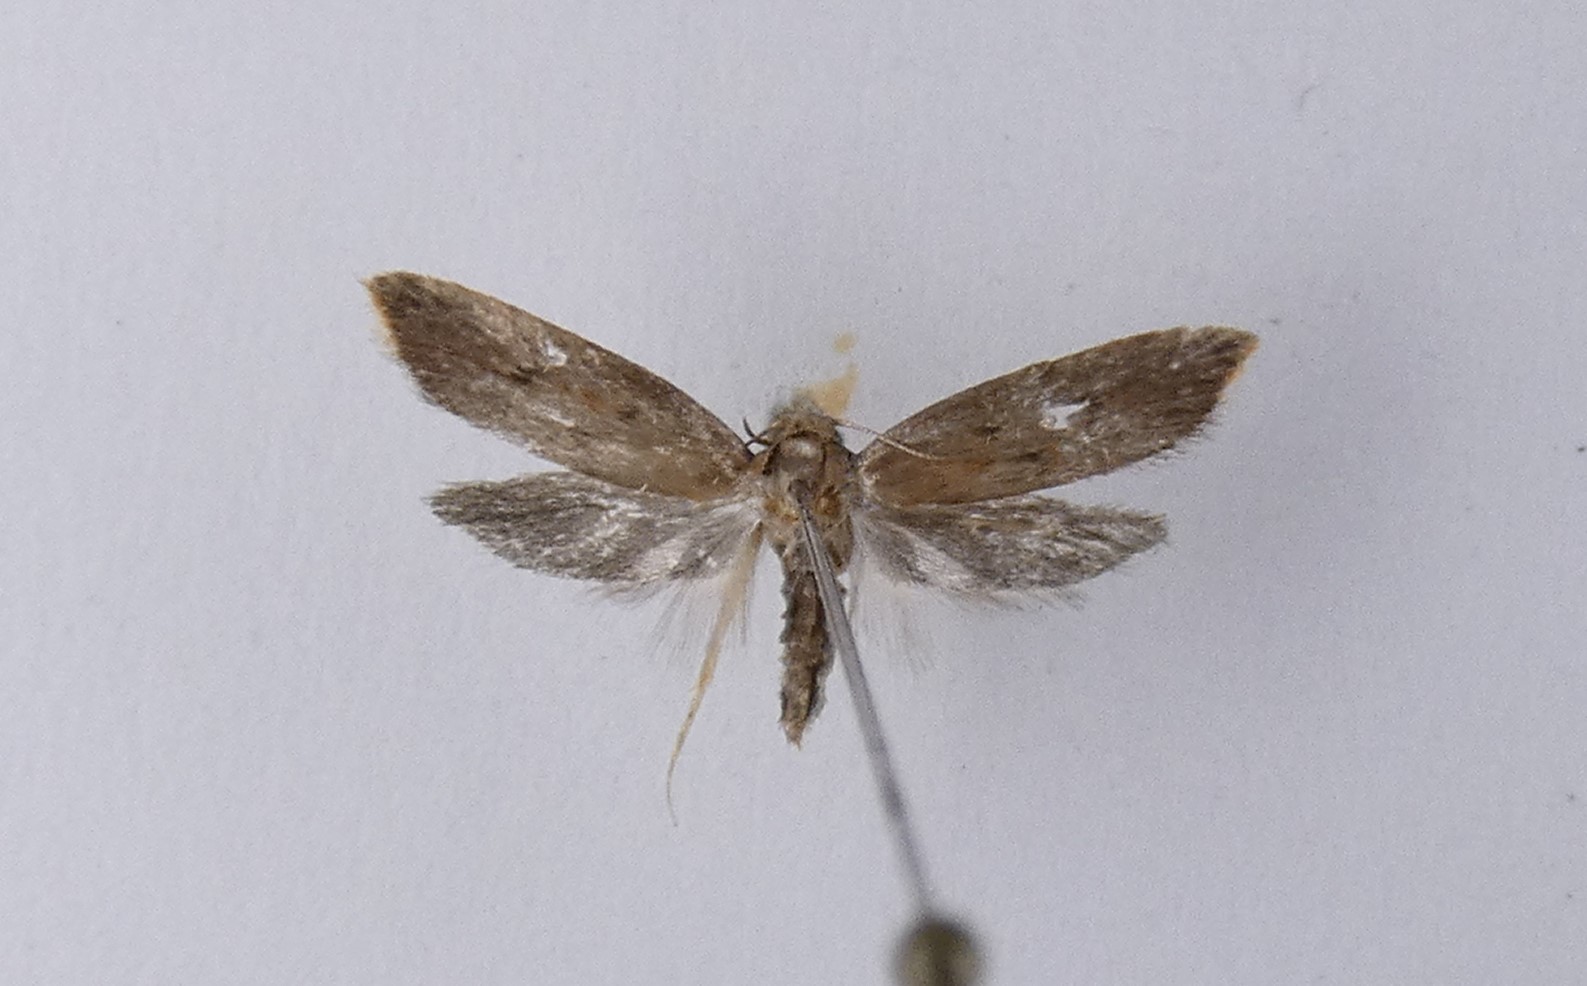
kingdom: Animalia
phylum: Arthropoda
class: Insecta
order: Lepidoptera
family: Oecophoridae
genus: Tachystola
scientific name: Tachystola acroxantha
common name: Ruddy streak
